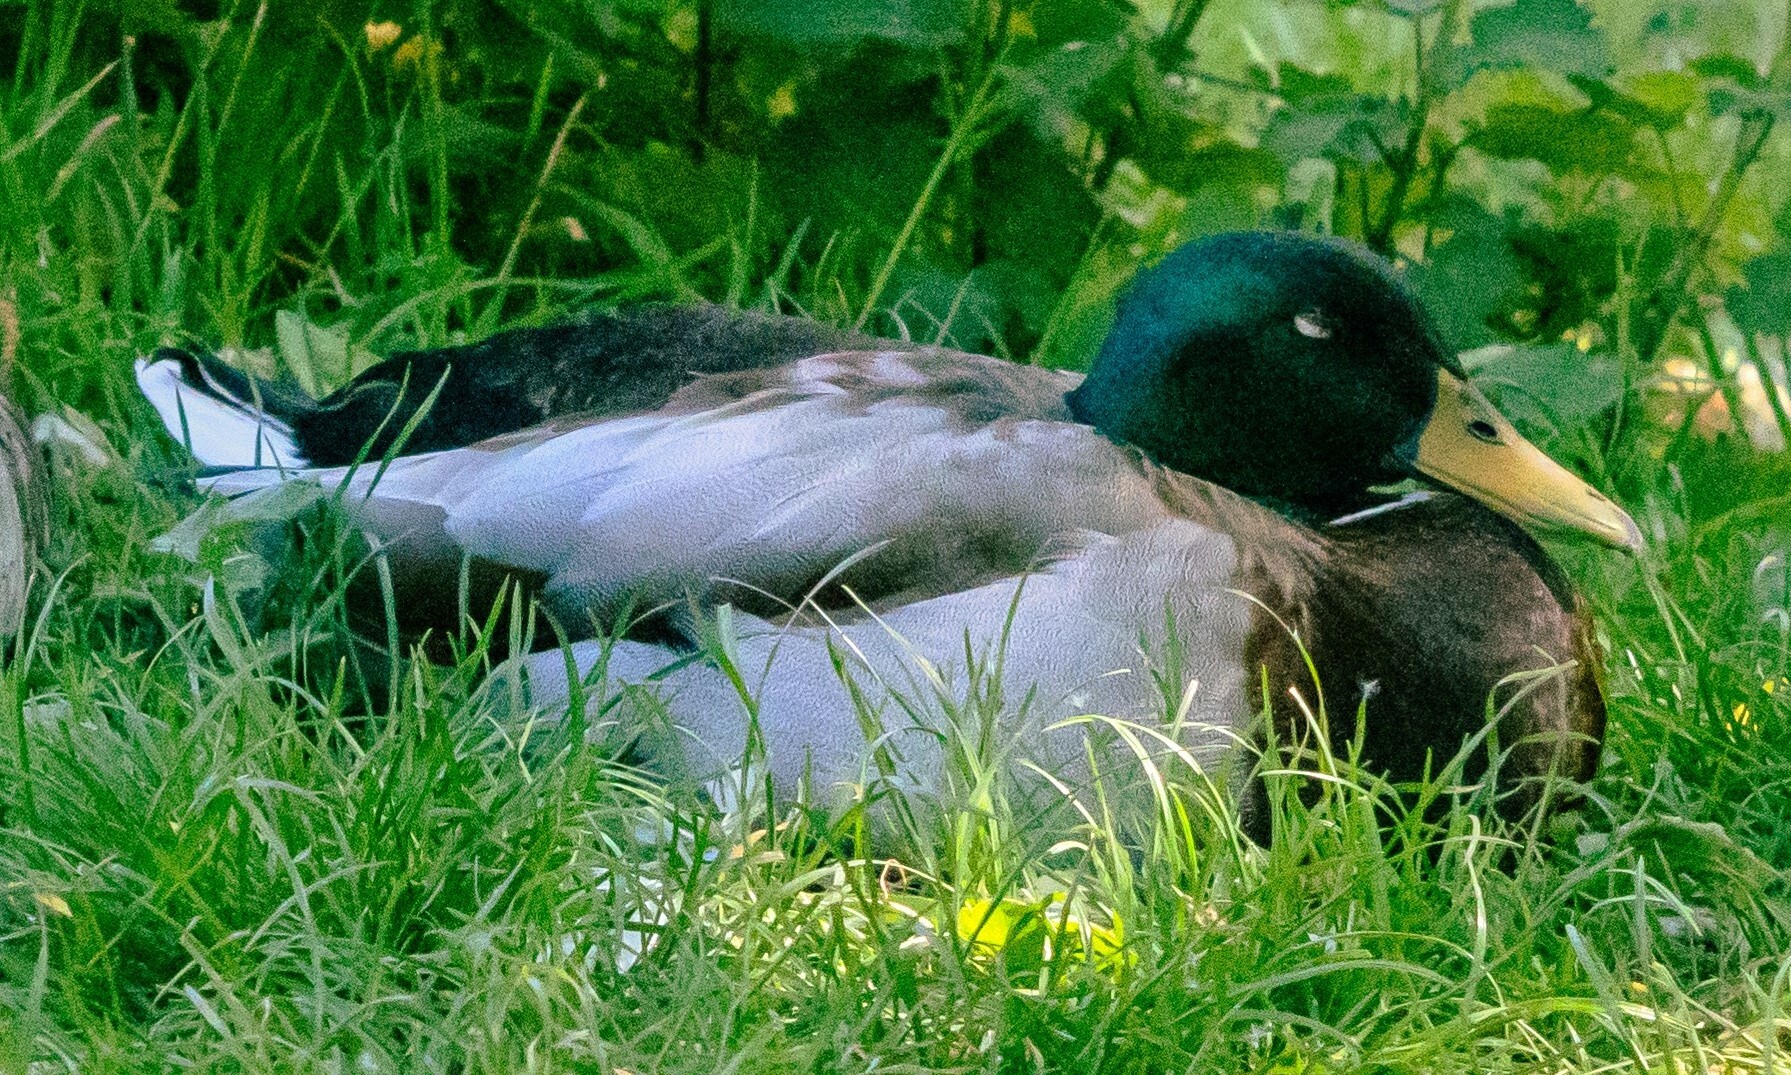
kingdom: Animalia
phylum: Chordata
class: Aves
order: Anseriformes
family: Anatidae
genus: Anas
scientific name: Anas platyrhynchos
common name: Mallard
